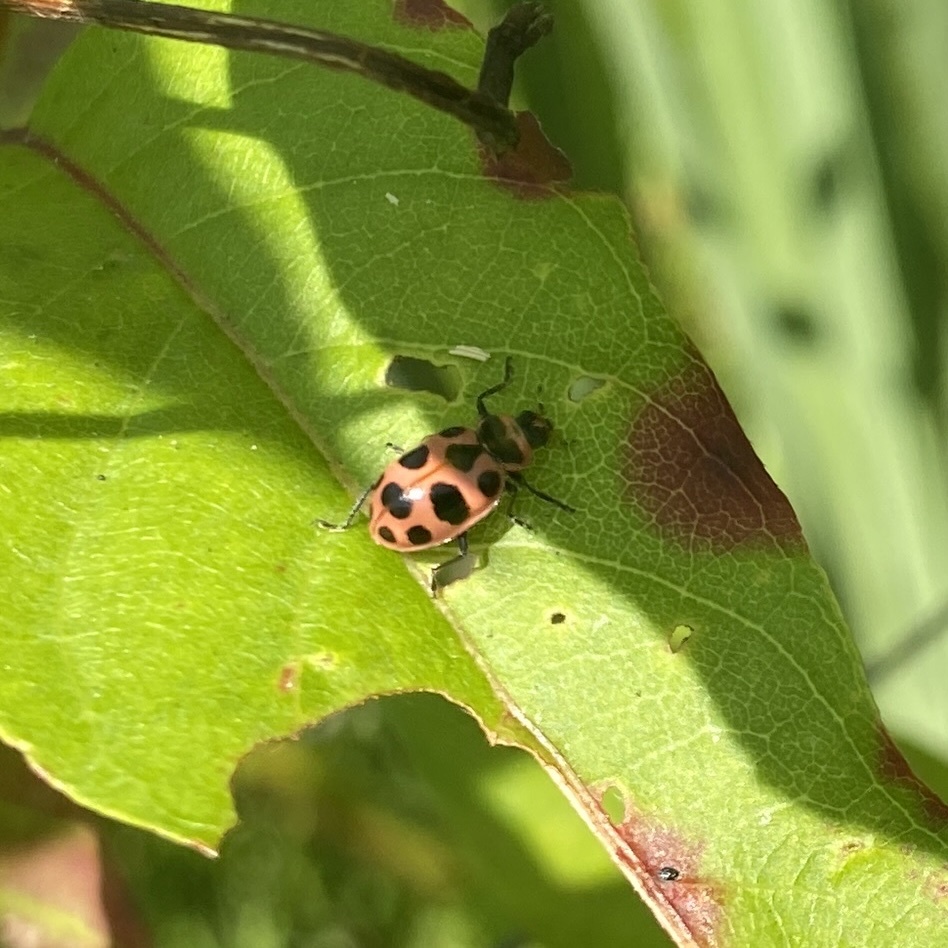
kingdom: Animalia
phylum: Arthropoda
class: Insecta
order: Coleoptera
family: Coccinellidae
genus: Coleomegilla
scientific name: Coleomegilla maculata
